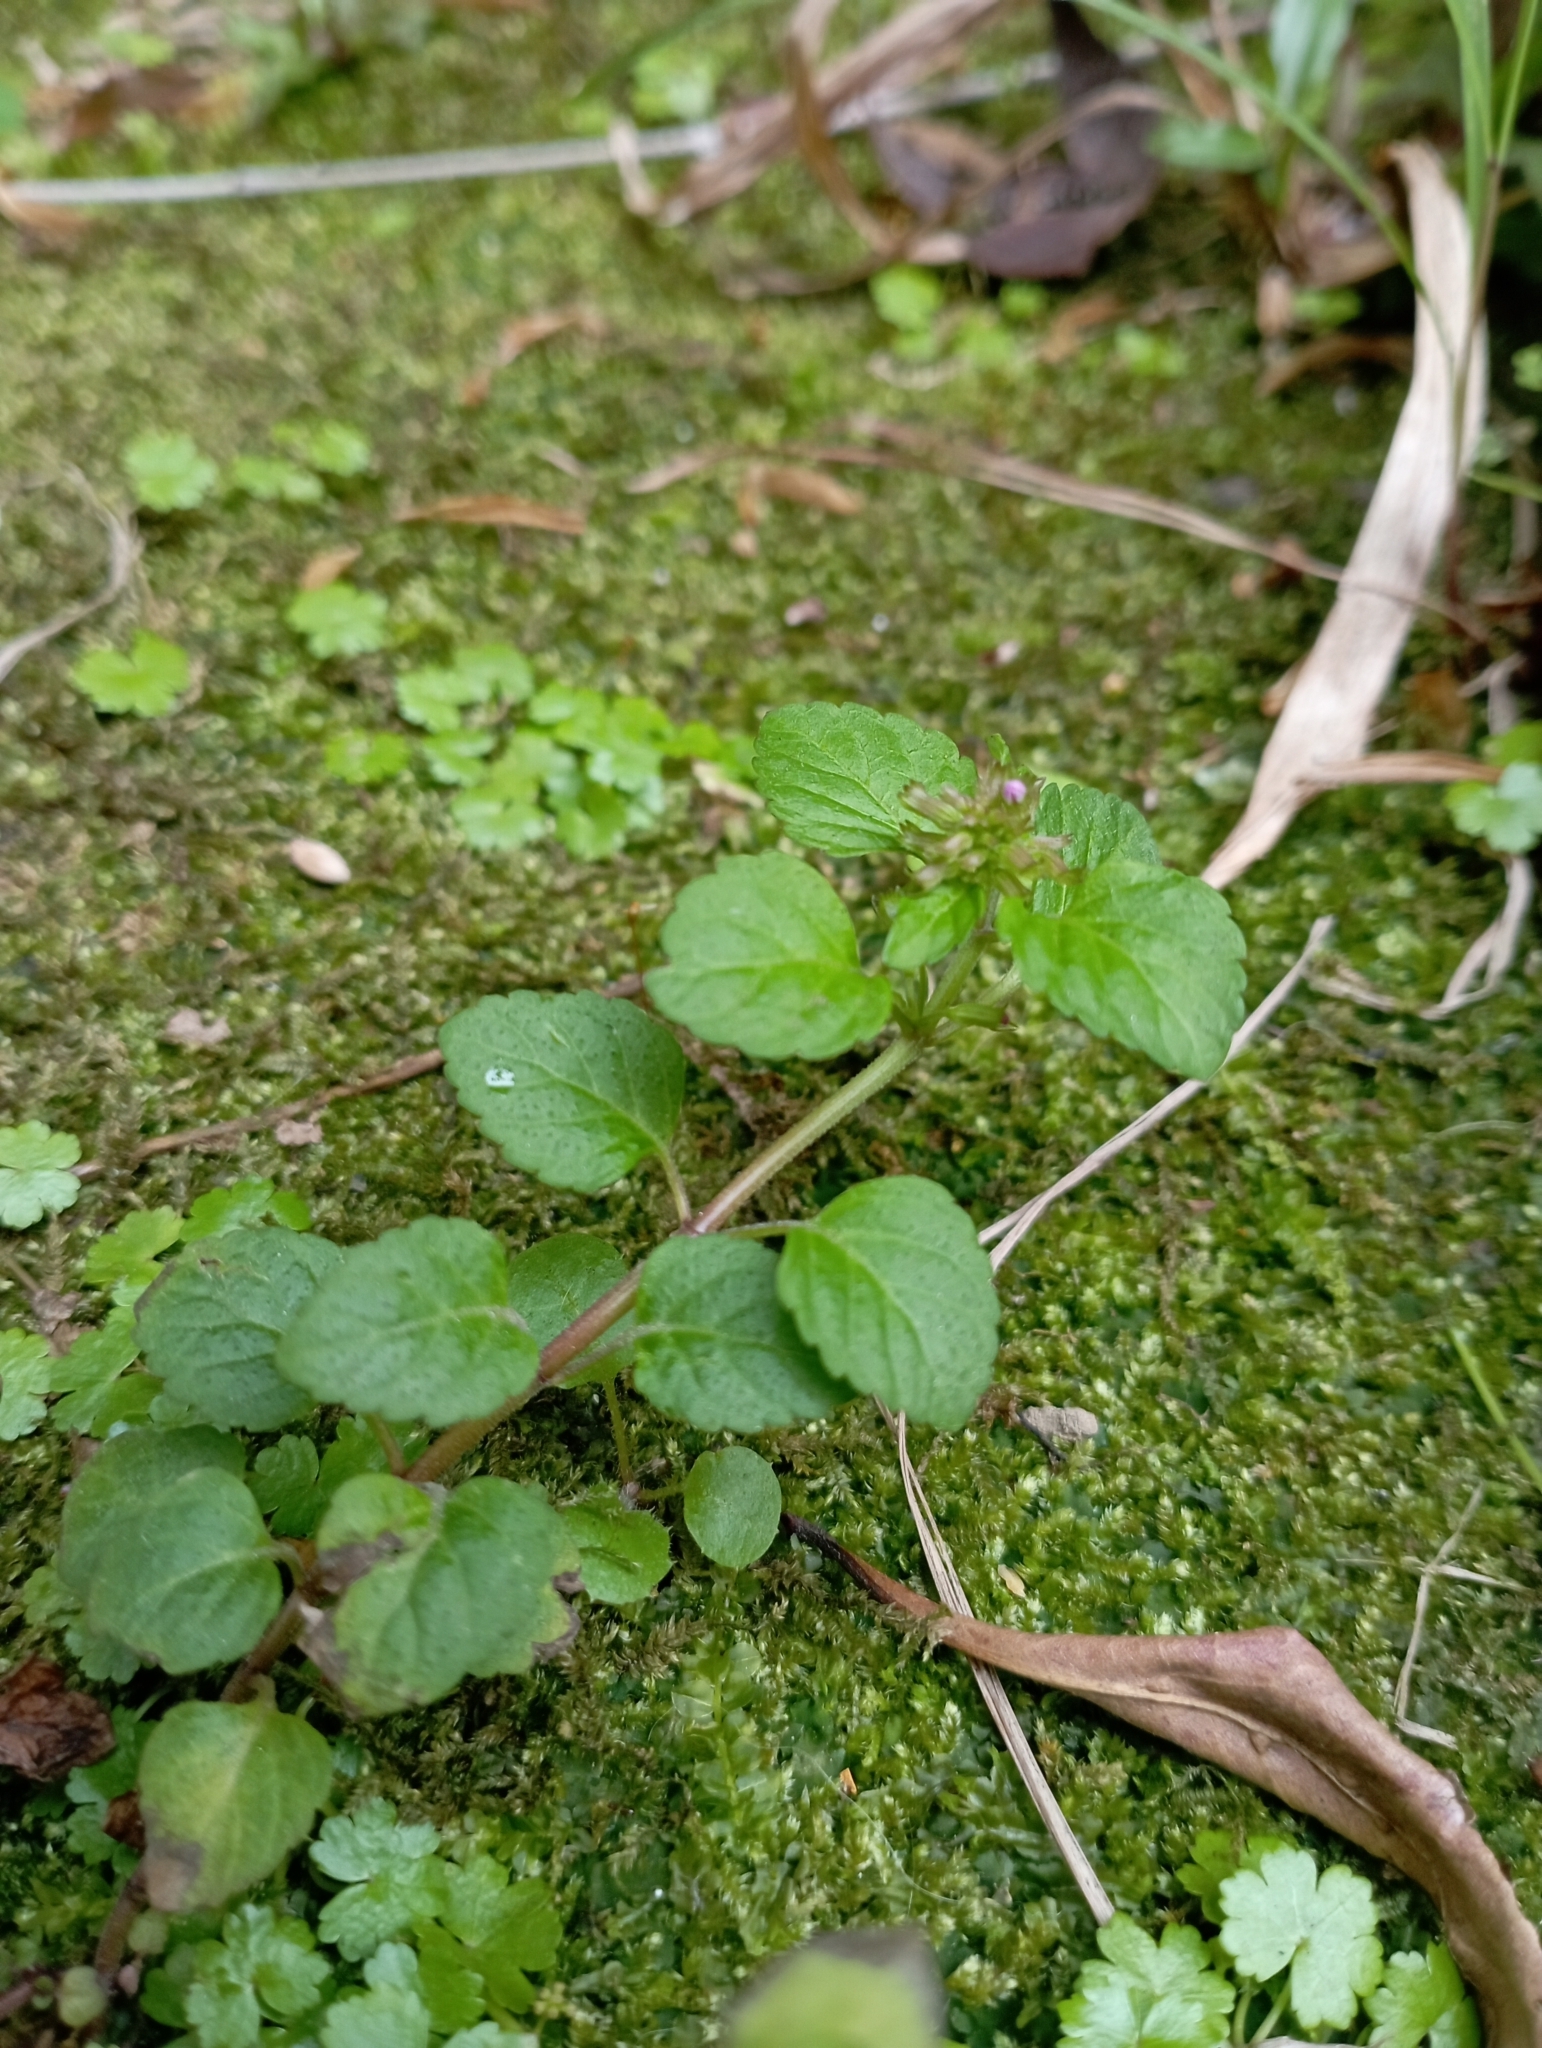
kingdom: Plantae
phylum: Tracheophyta
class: Magnoliopsida
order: Lamiales
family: Lamiaceae
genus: Clinopodium
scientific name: Clinopodium gracile
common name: Slender wild basil
